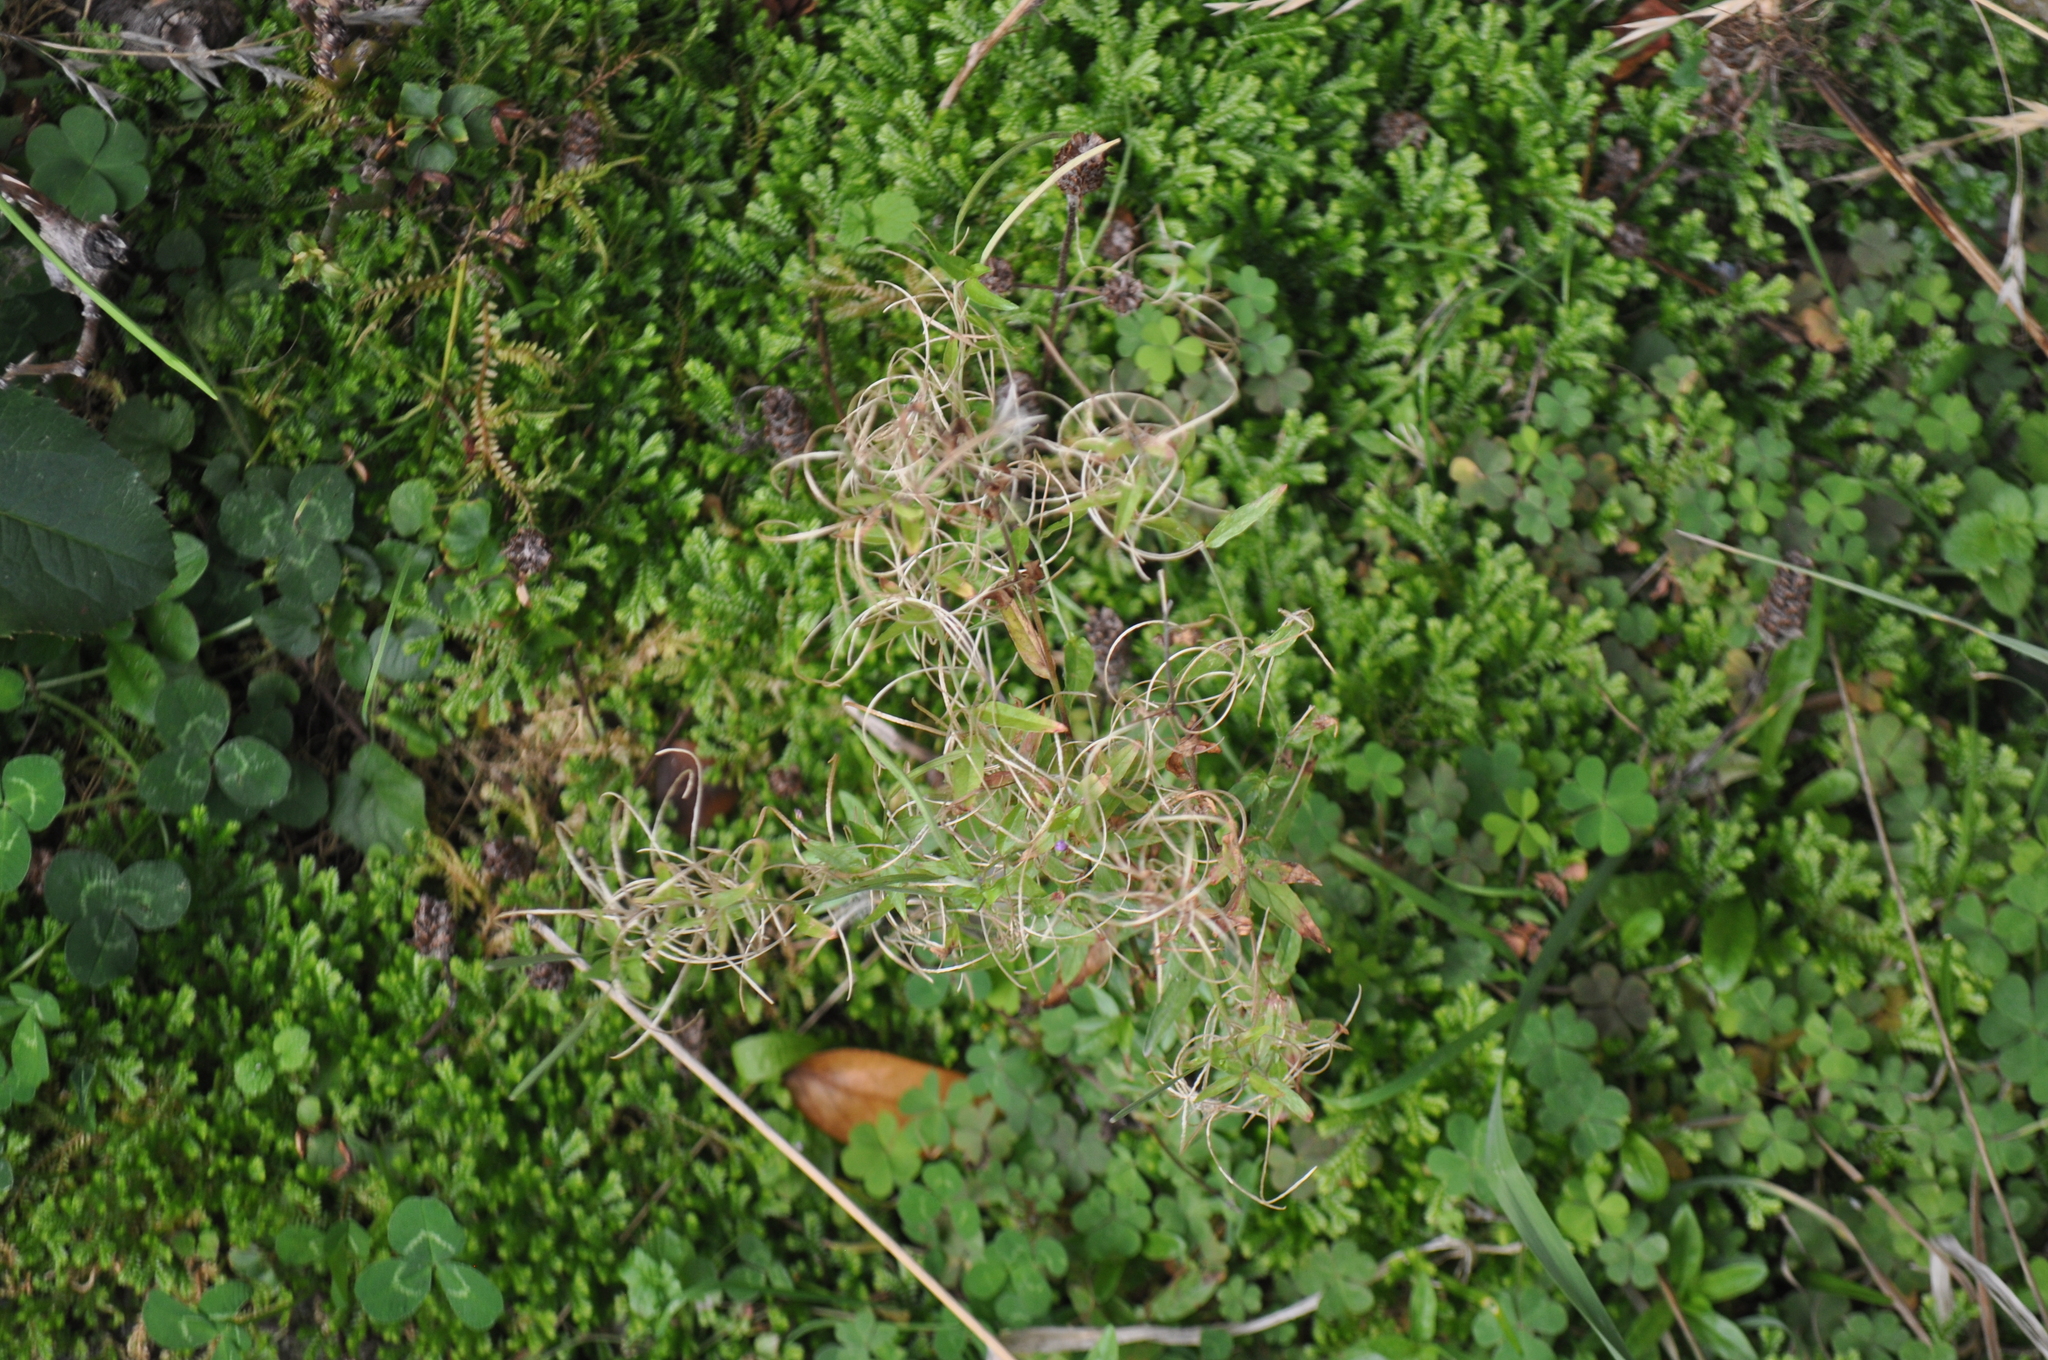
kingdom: Plantae
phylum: Tracheophyta
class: Magnoliopsida
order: Myrtales
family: Onagraceae
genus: Epilobium
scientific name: Epilobium ciliatum
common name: American willowherb
